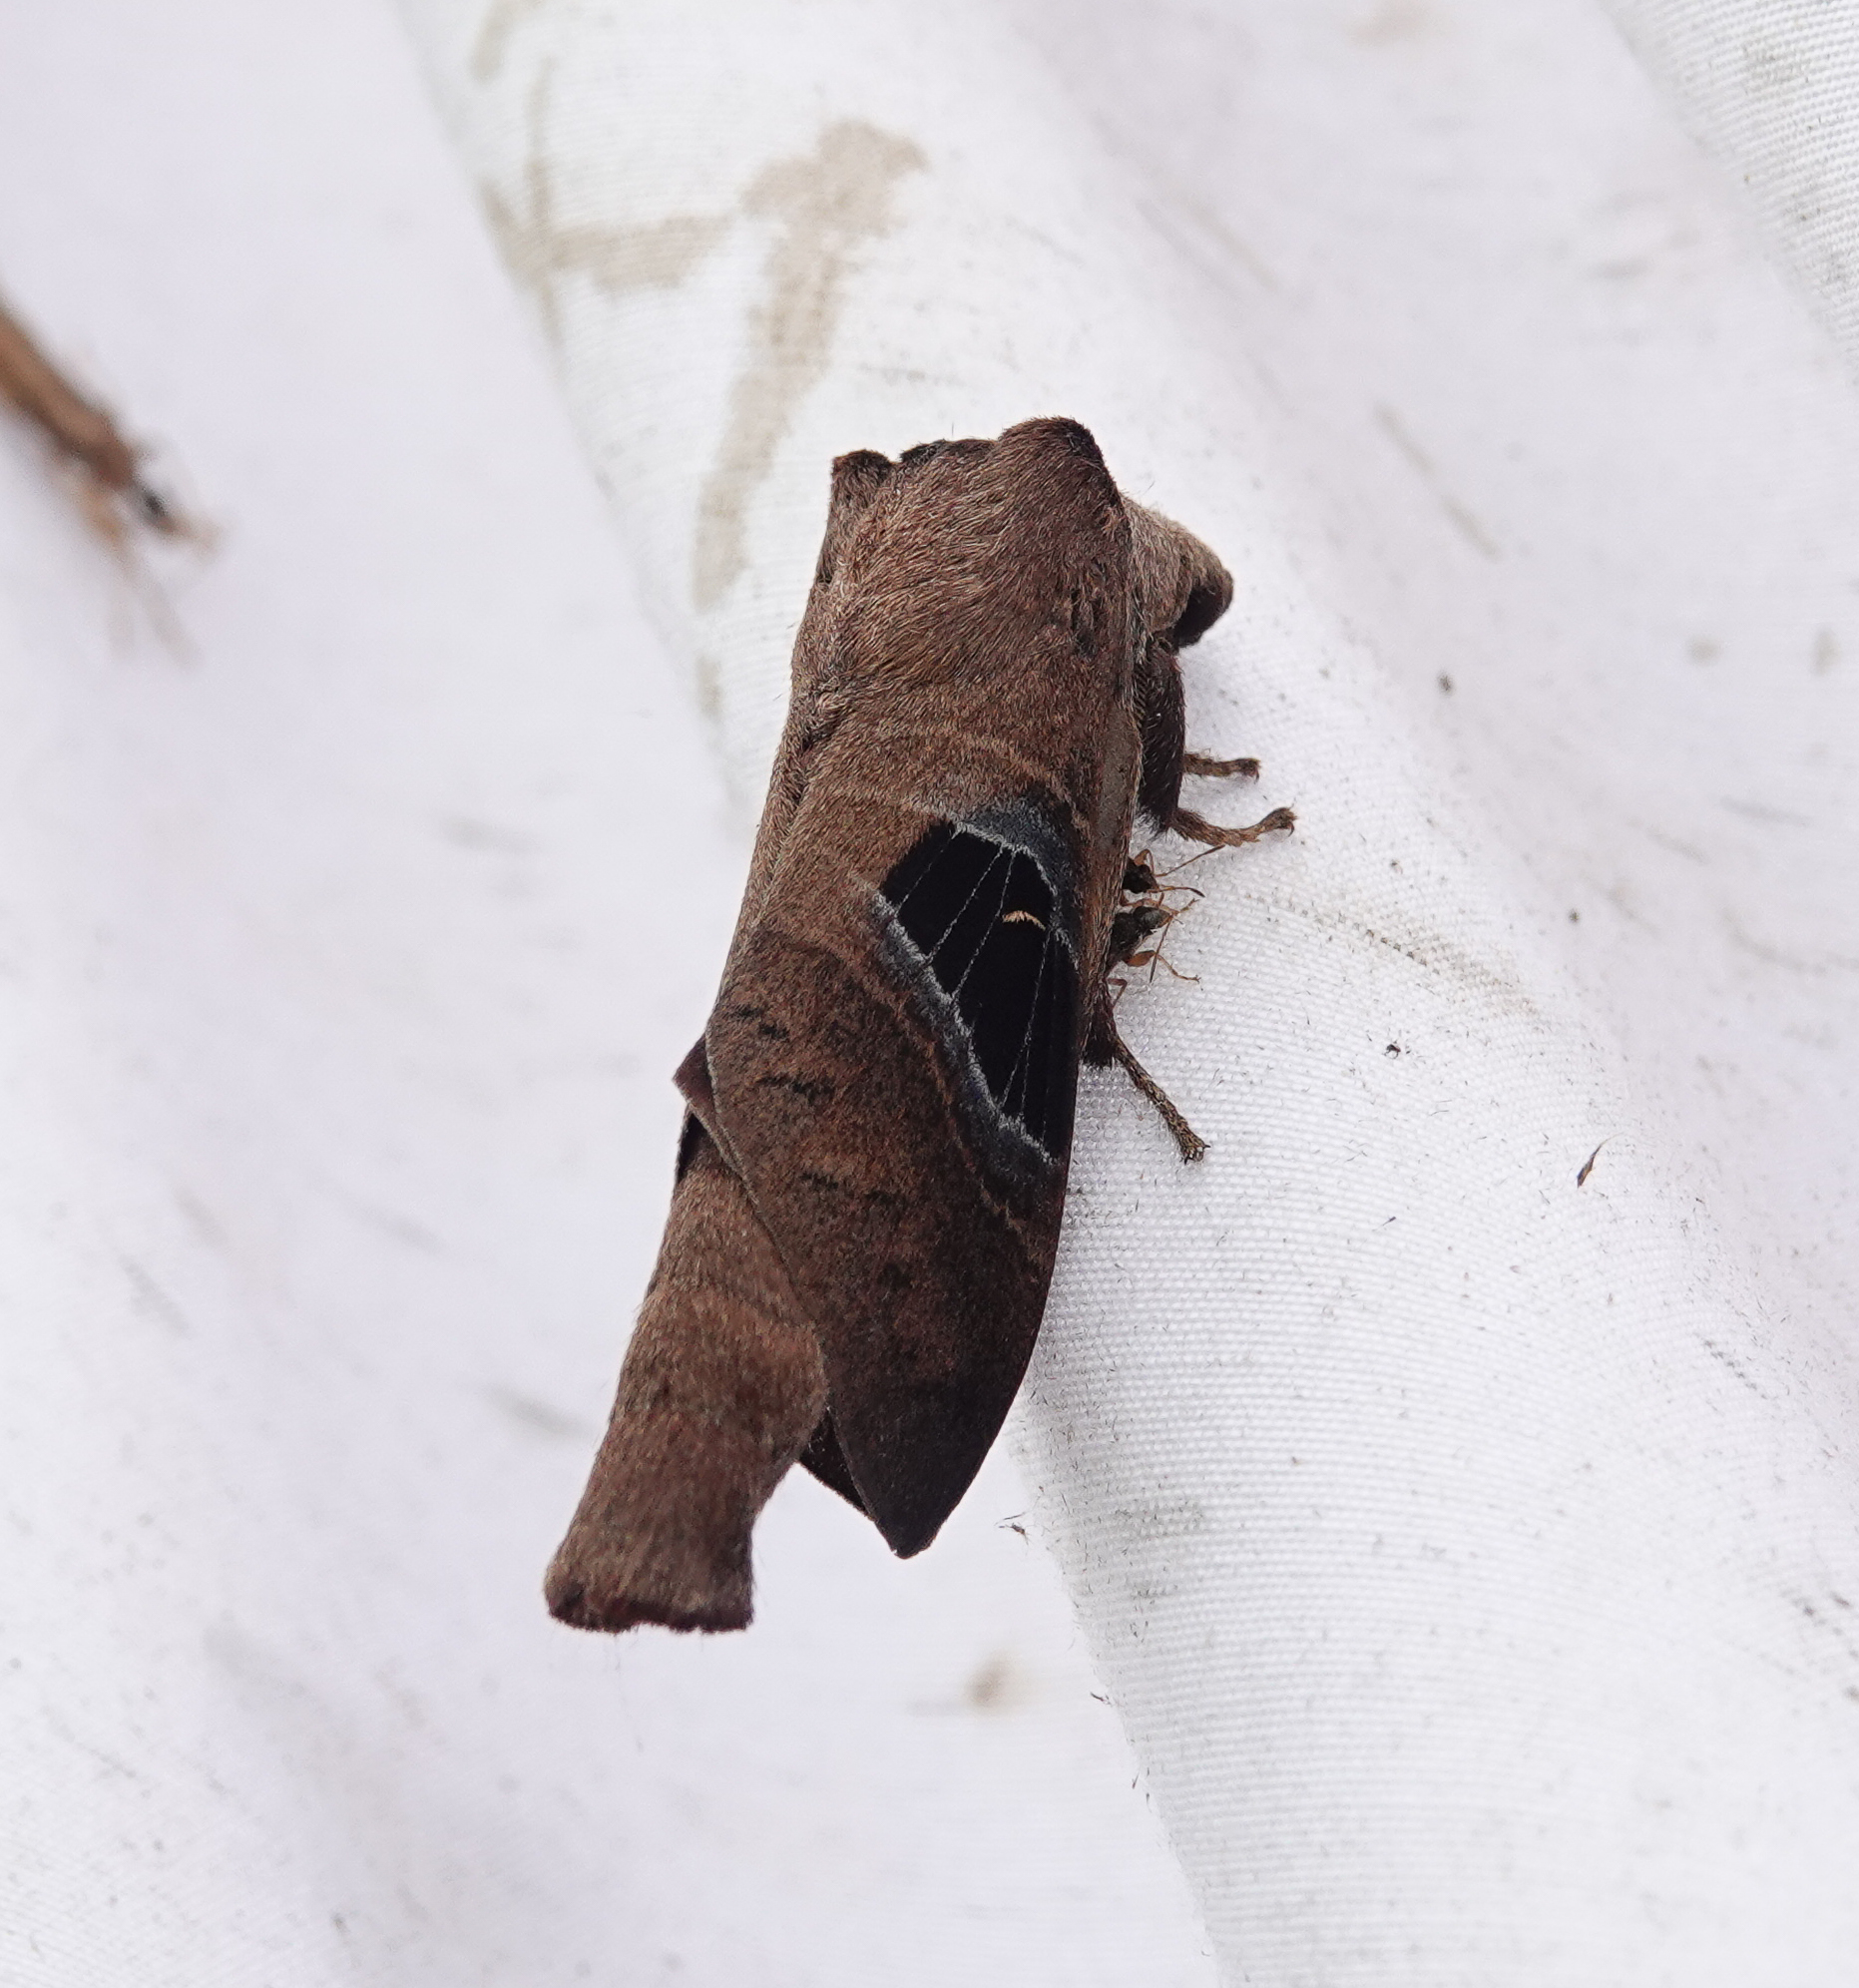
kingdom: Animalia
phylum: Arthropoda
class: Insecta
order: Lepidoptera
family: Lasiocampidae
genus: Metanastria
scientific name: Metanastria hyrtaca
